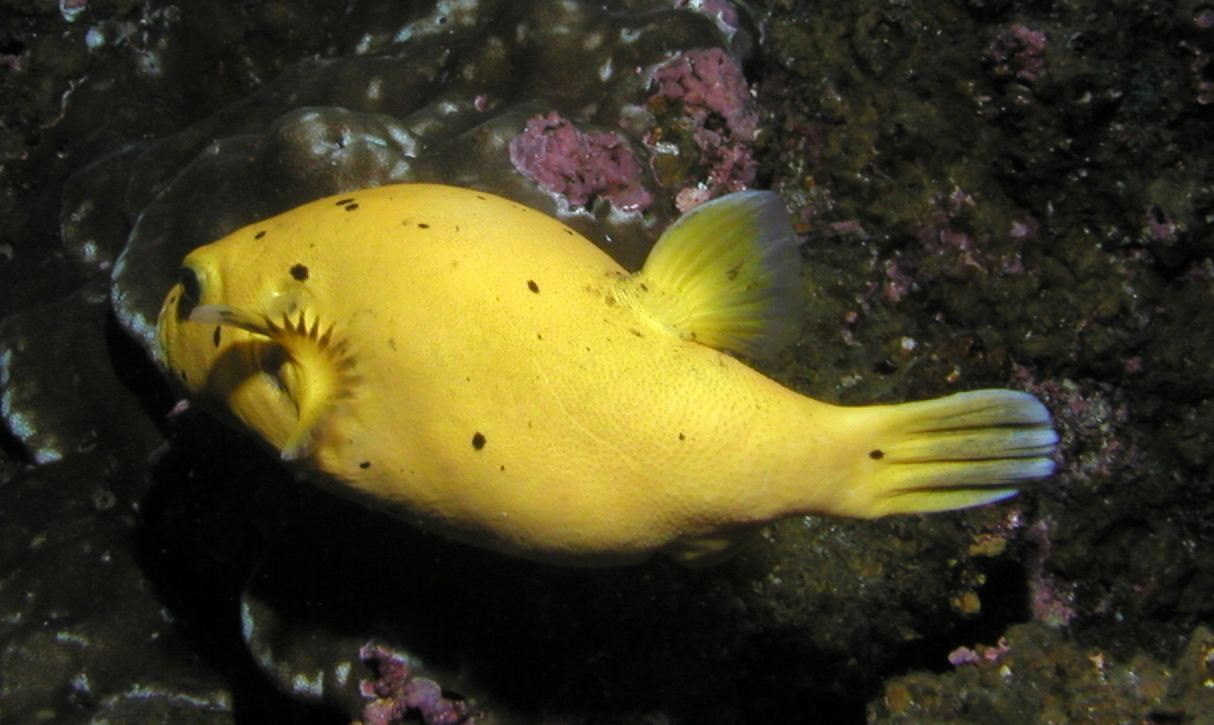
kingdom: Animalia
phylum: Chordata
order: Tetraodontiformes
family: Tetraodontidae
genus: Arothron
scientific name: Arothron meleagris
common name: Guinea-fowl pufferfish
